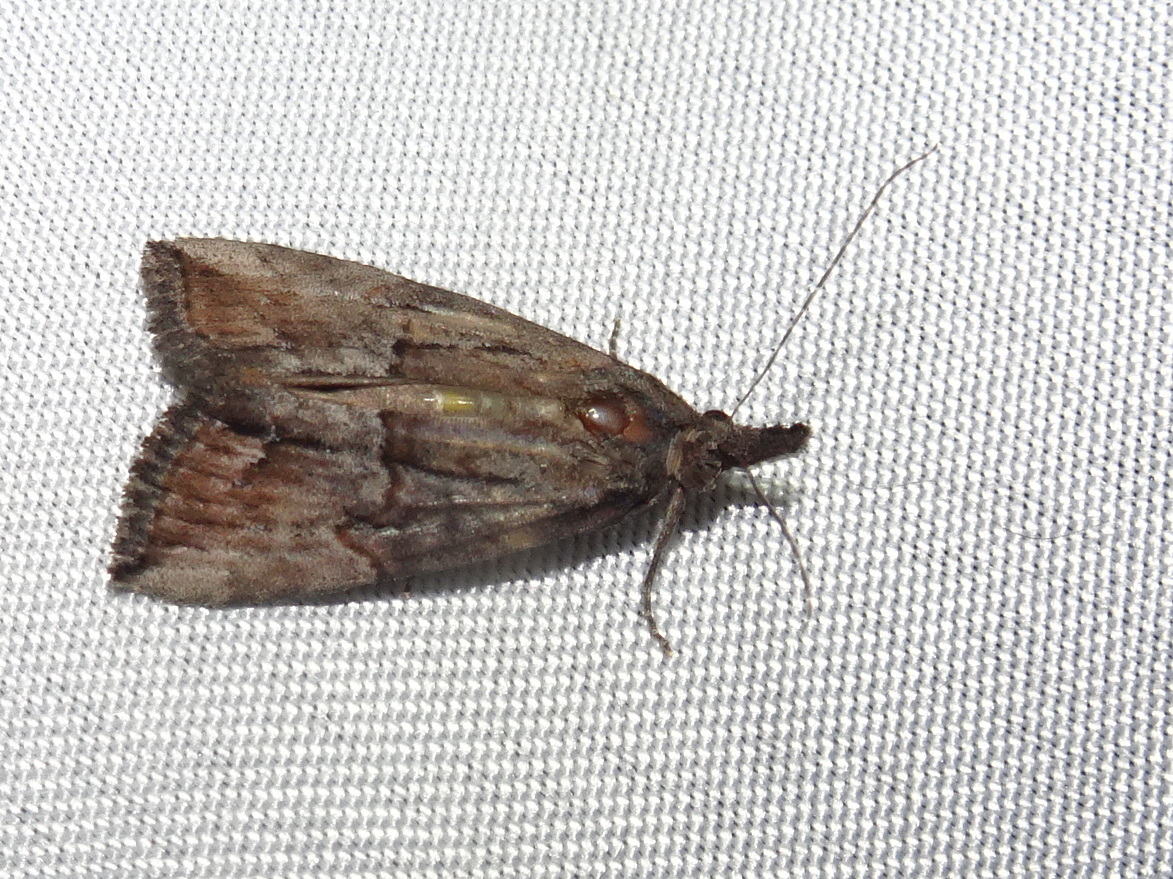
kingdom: Animalia
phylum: Arthropoda
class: Insecta
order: Lepidoptera
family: Erebidae
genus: Hypena
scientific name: Hypena scabra
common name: Green cloverworm
